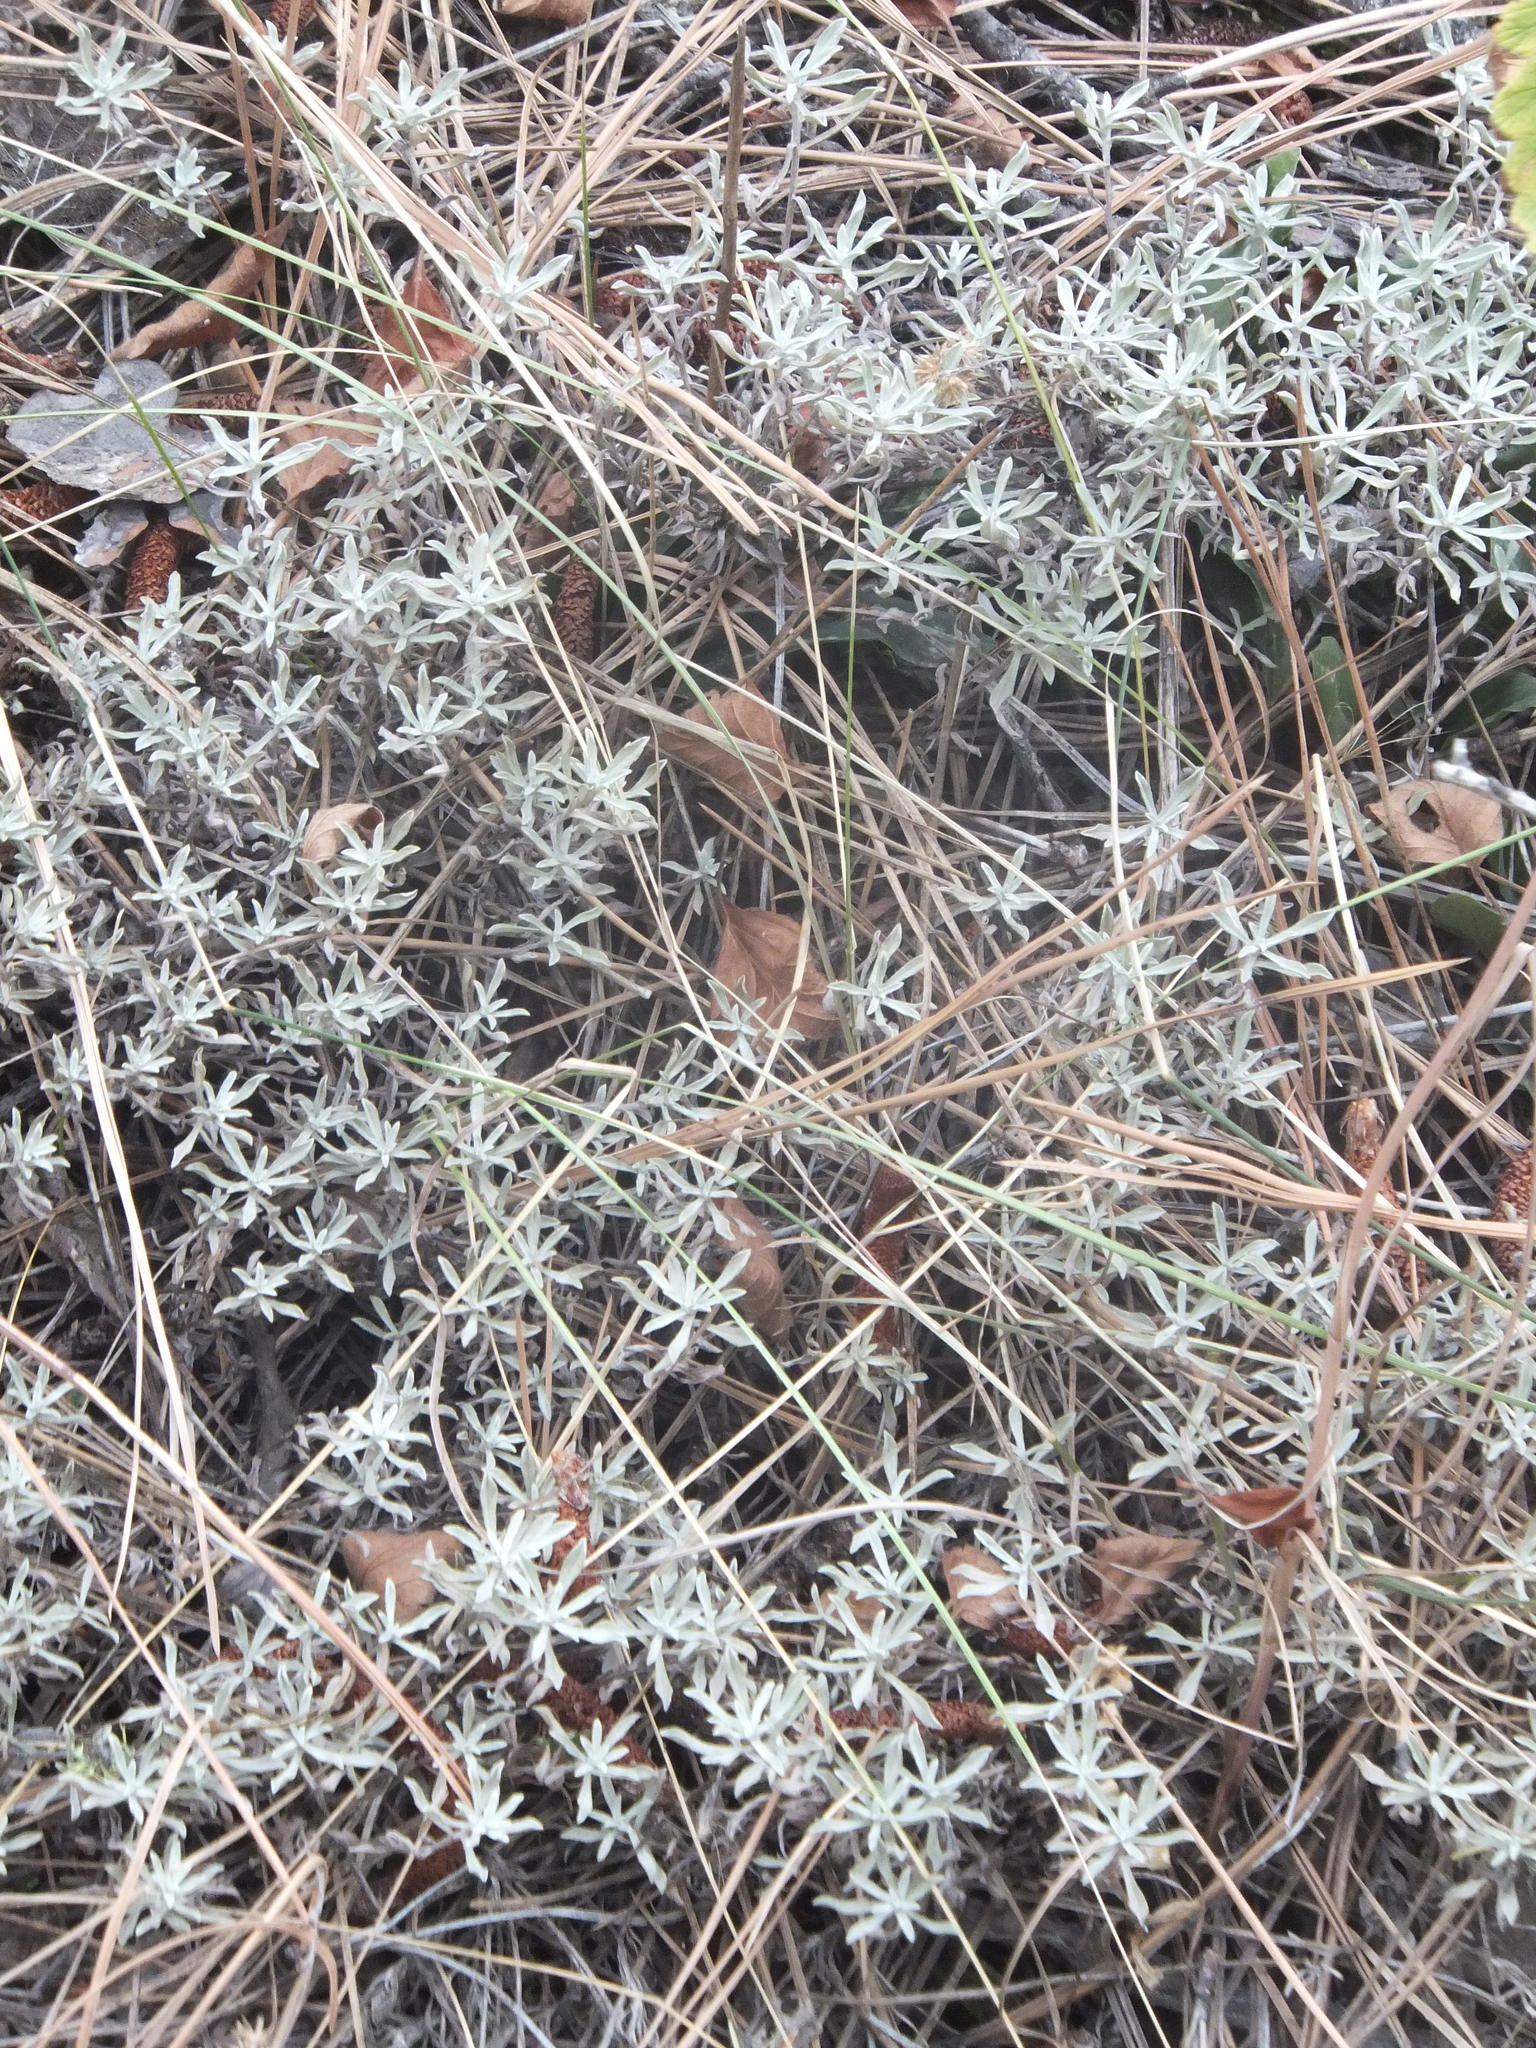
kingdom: Plantae
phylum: Tracheophyta
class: Magnoliopsida
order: Asterales
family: Asteraceae
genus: Antennaria
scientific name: Antennaria umbrinella
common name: Brown pussytoes
